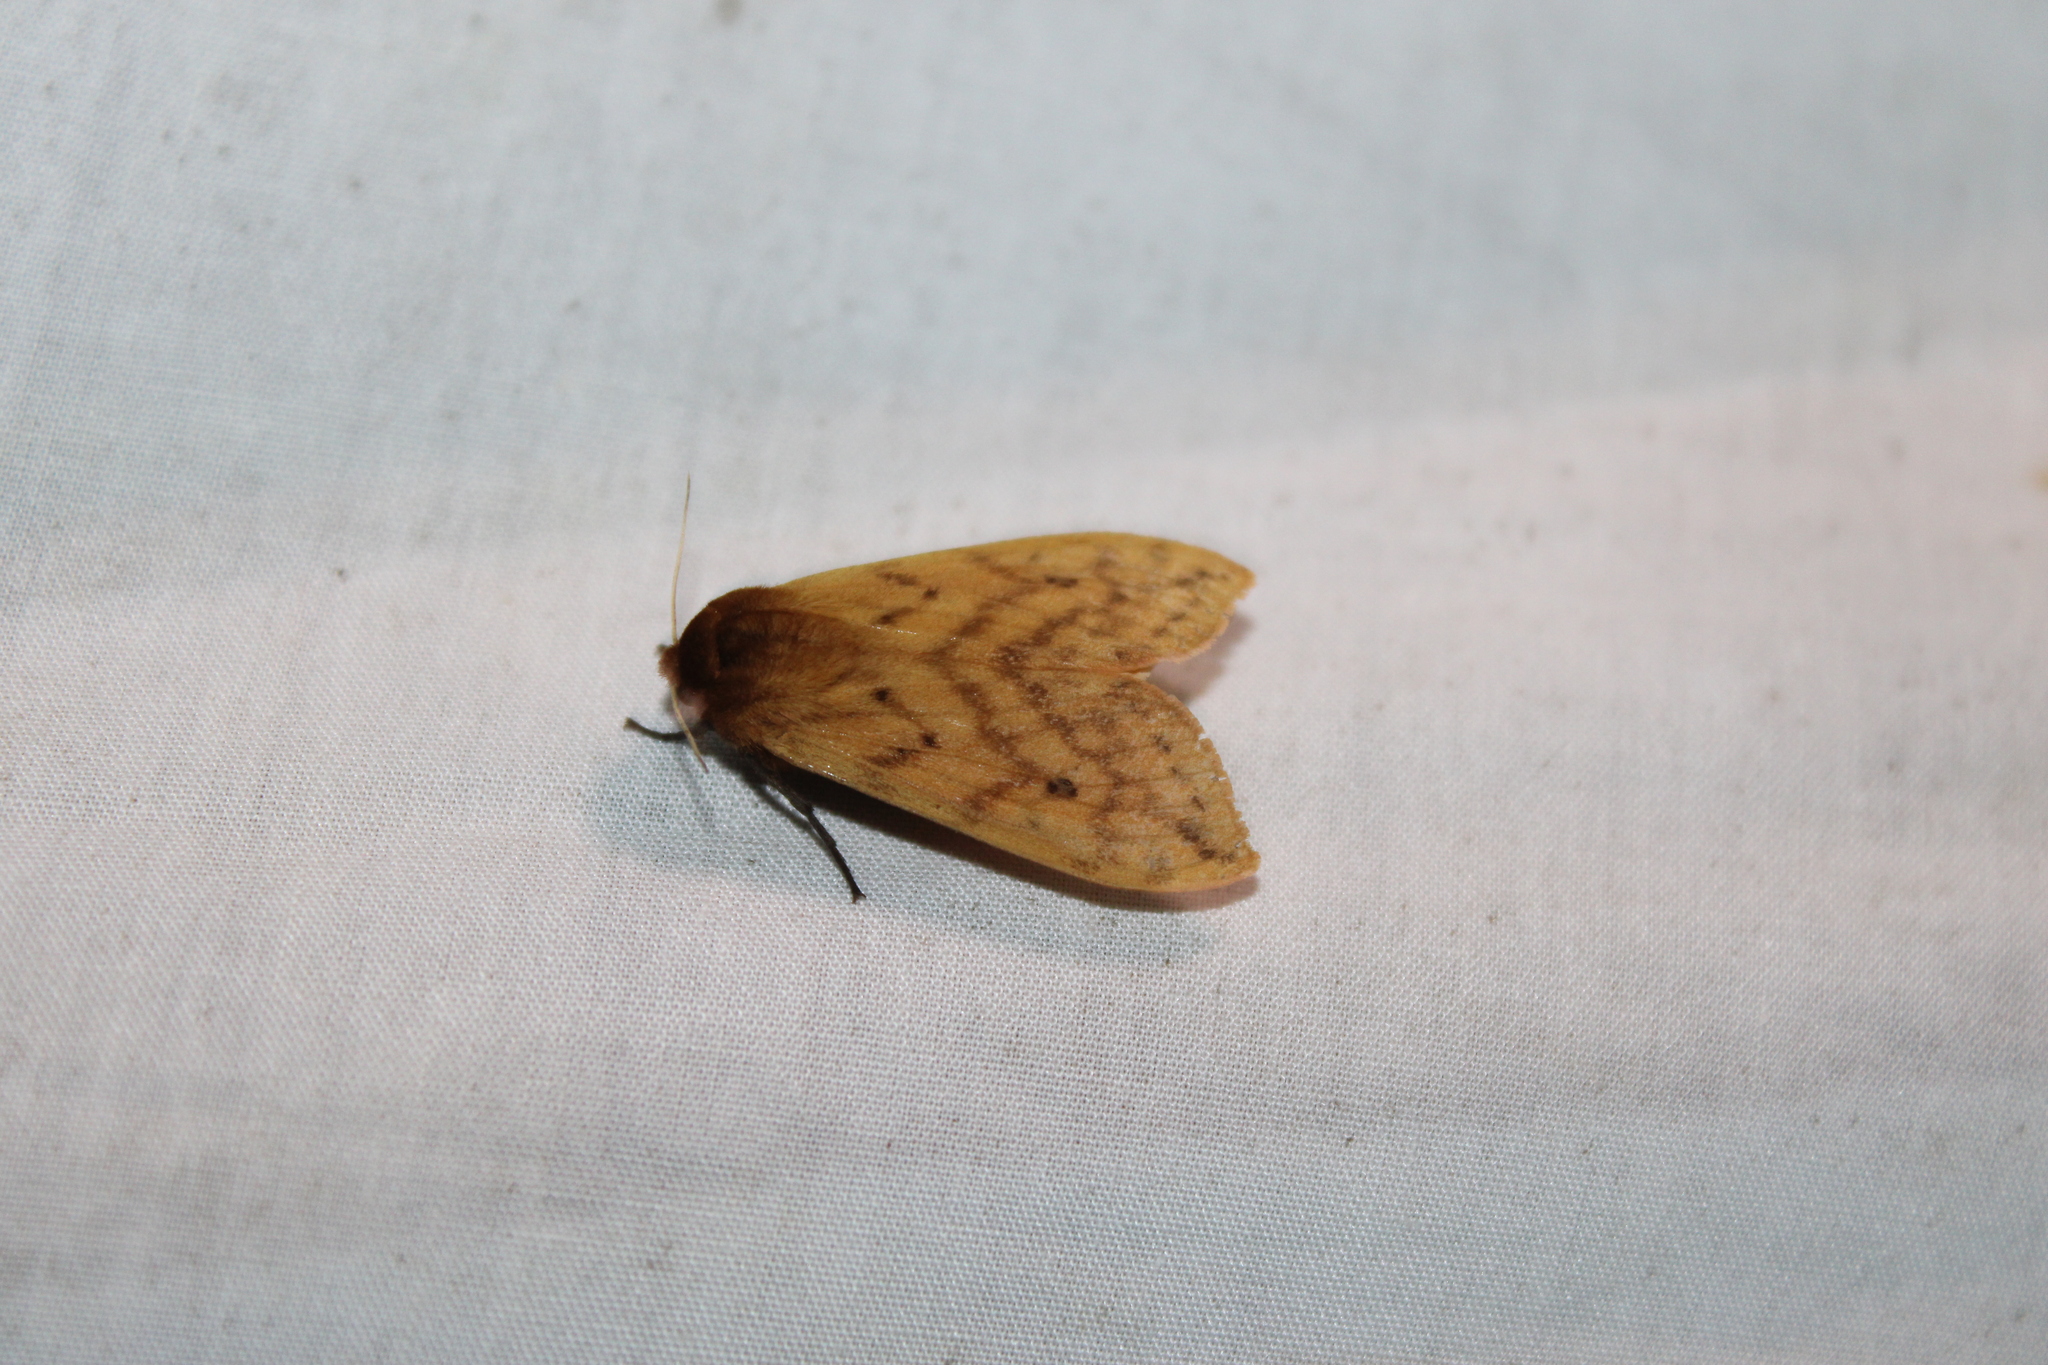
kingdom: Animalia
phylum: Arthropoda
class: Insecta
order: Lepidoptera
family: Erebidae
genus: Pyrrharctia
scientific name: Pyrrharctia isabella
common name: Isabella tiger moth
